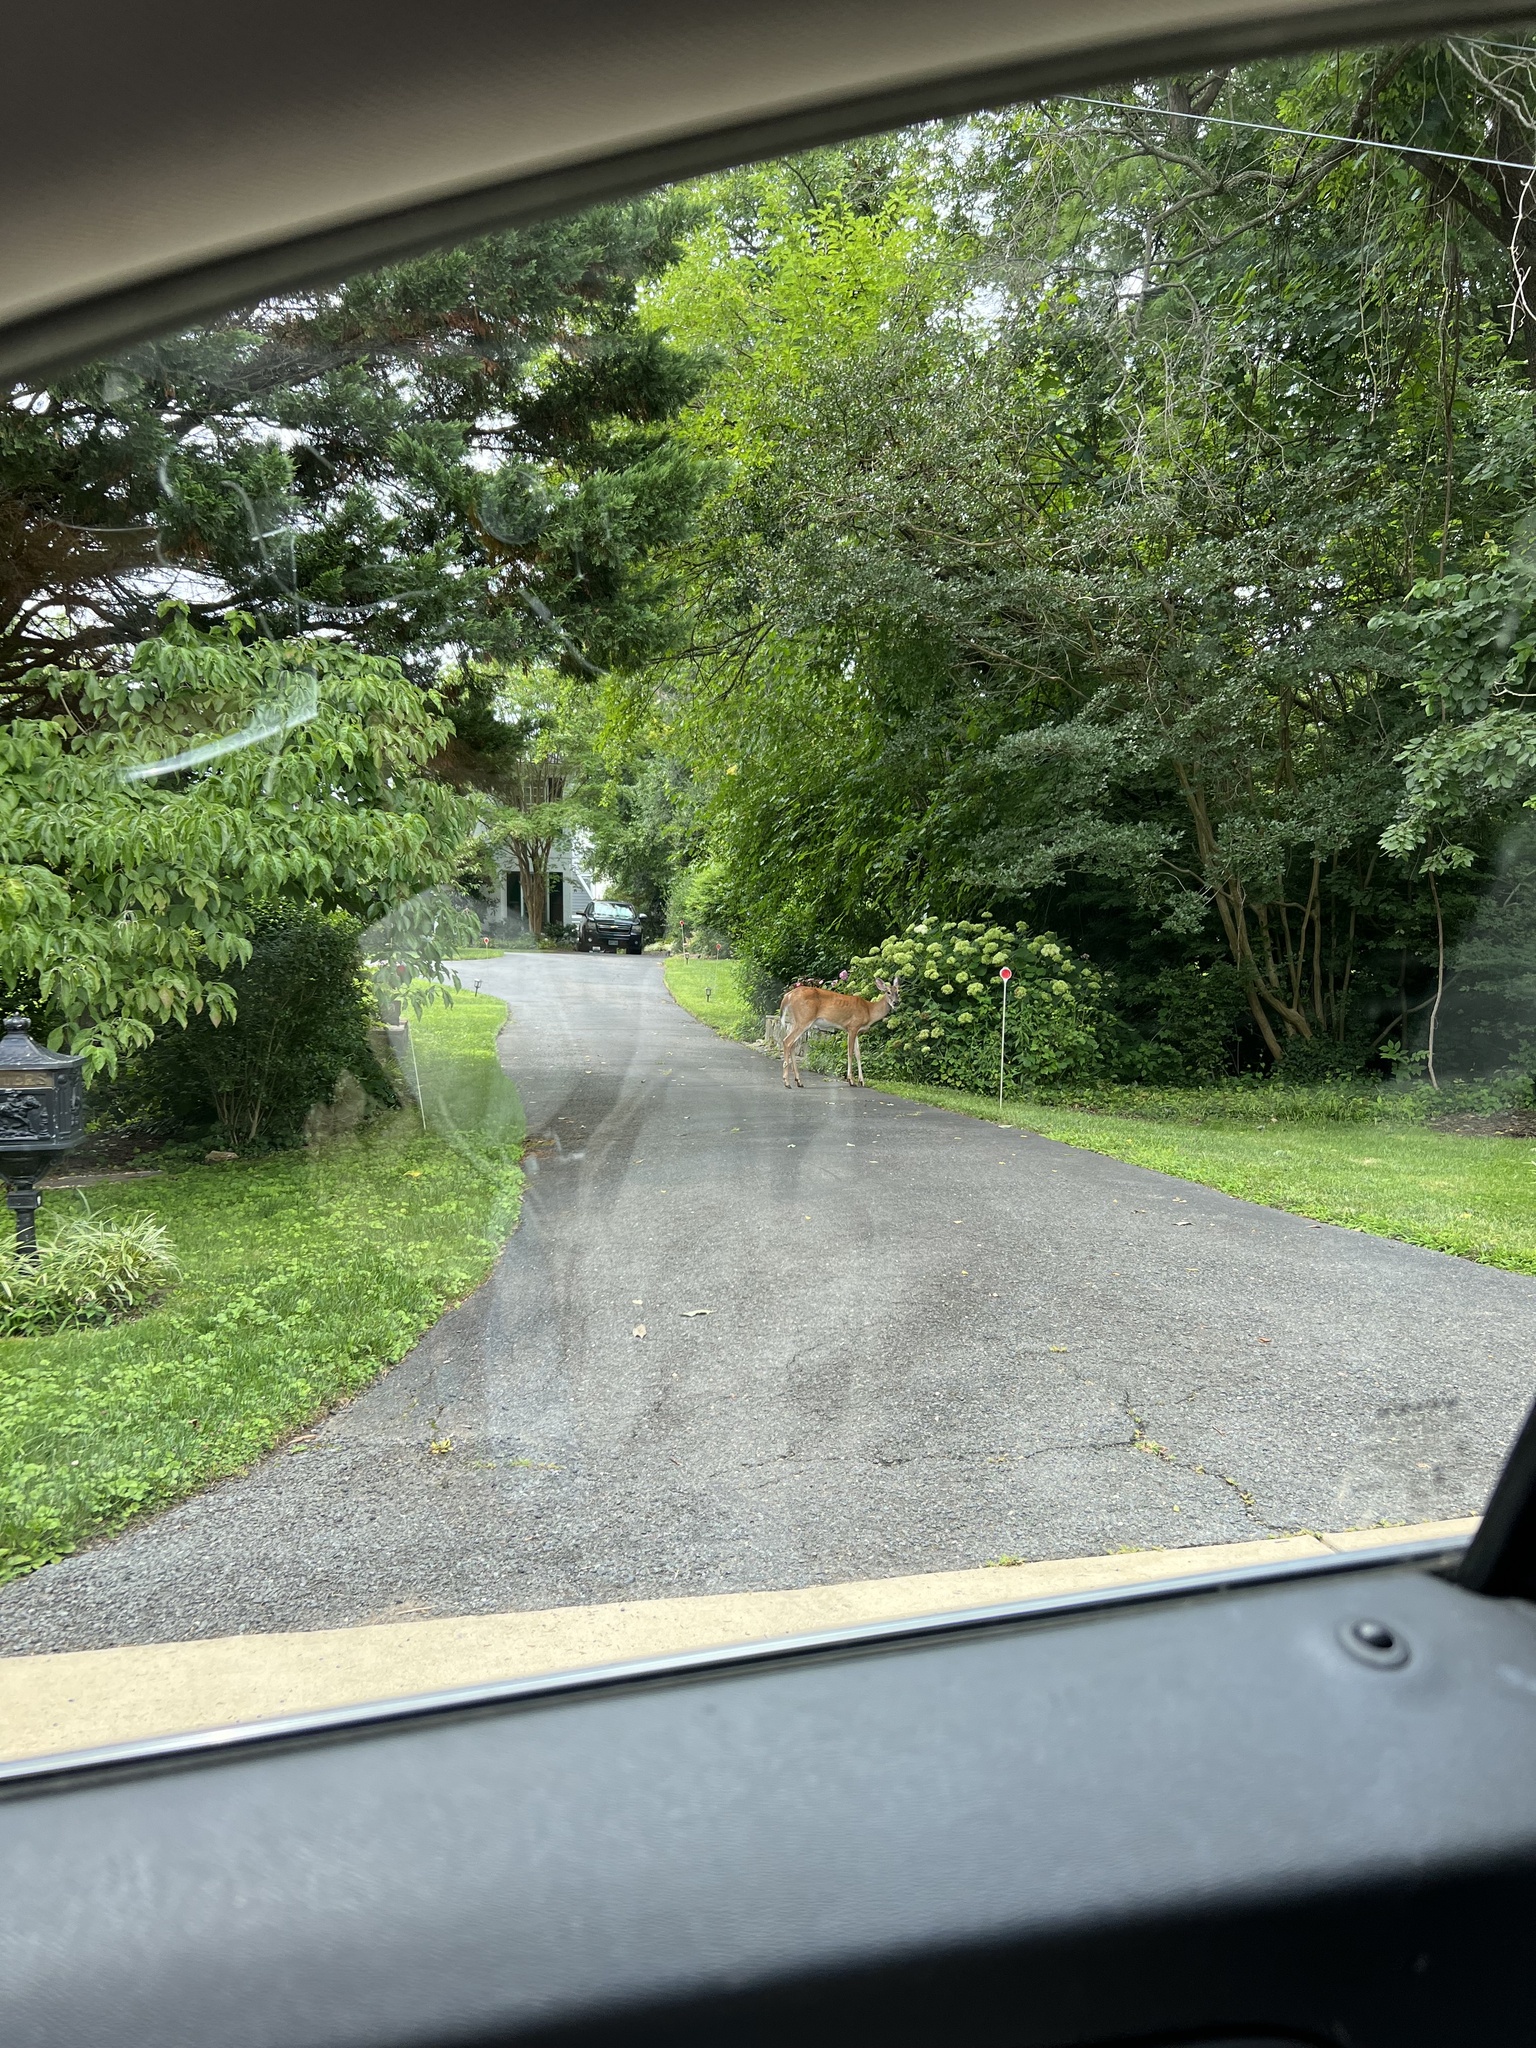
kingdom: Animalia
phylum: Chordata
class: Mammalia
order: Artiodactyla
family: Cervidae
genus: Odocoileus
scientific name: Odocoileus virginianus
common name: White-tailed deer
